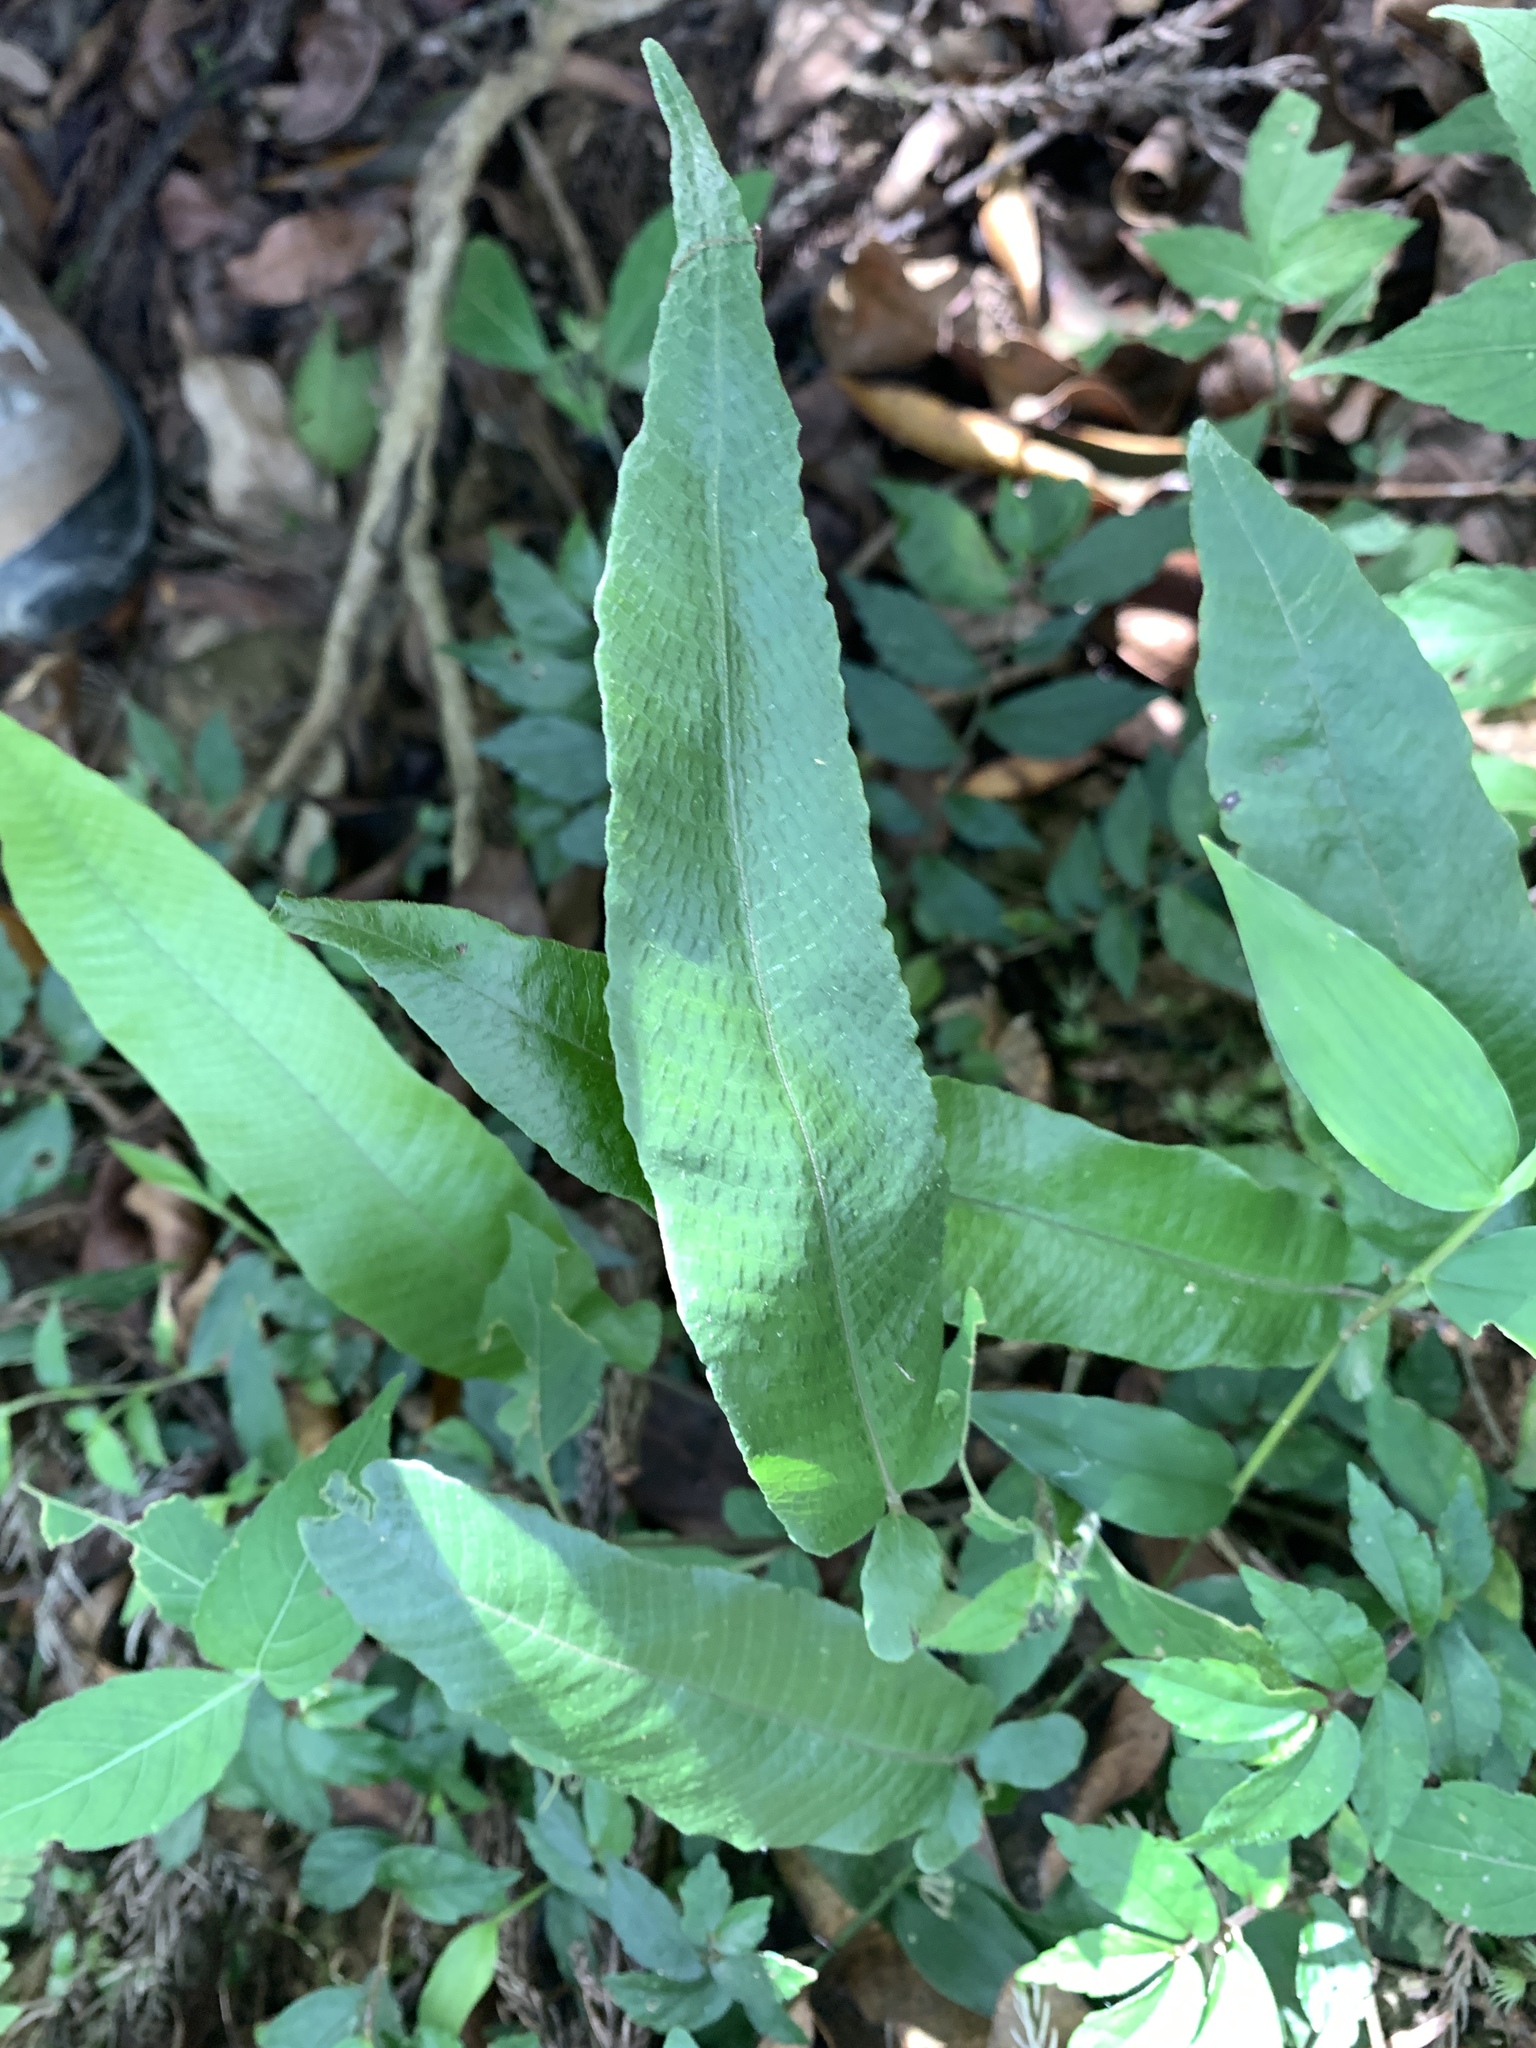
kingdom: Plantae
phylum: Tracheophyta
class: Polypodiopsida
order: Polypodiales
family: Thelypteridaceae
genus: Grypothrix
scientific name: Grypothrix triphylla
